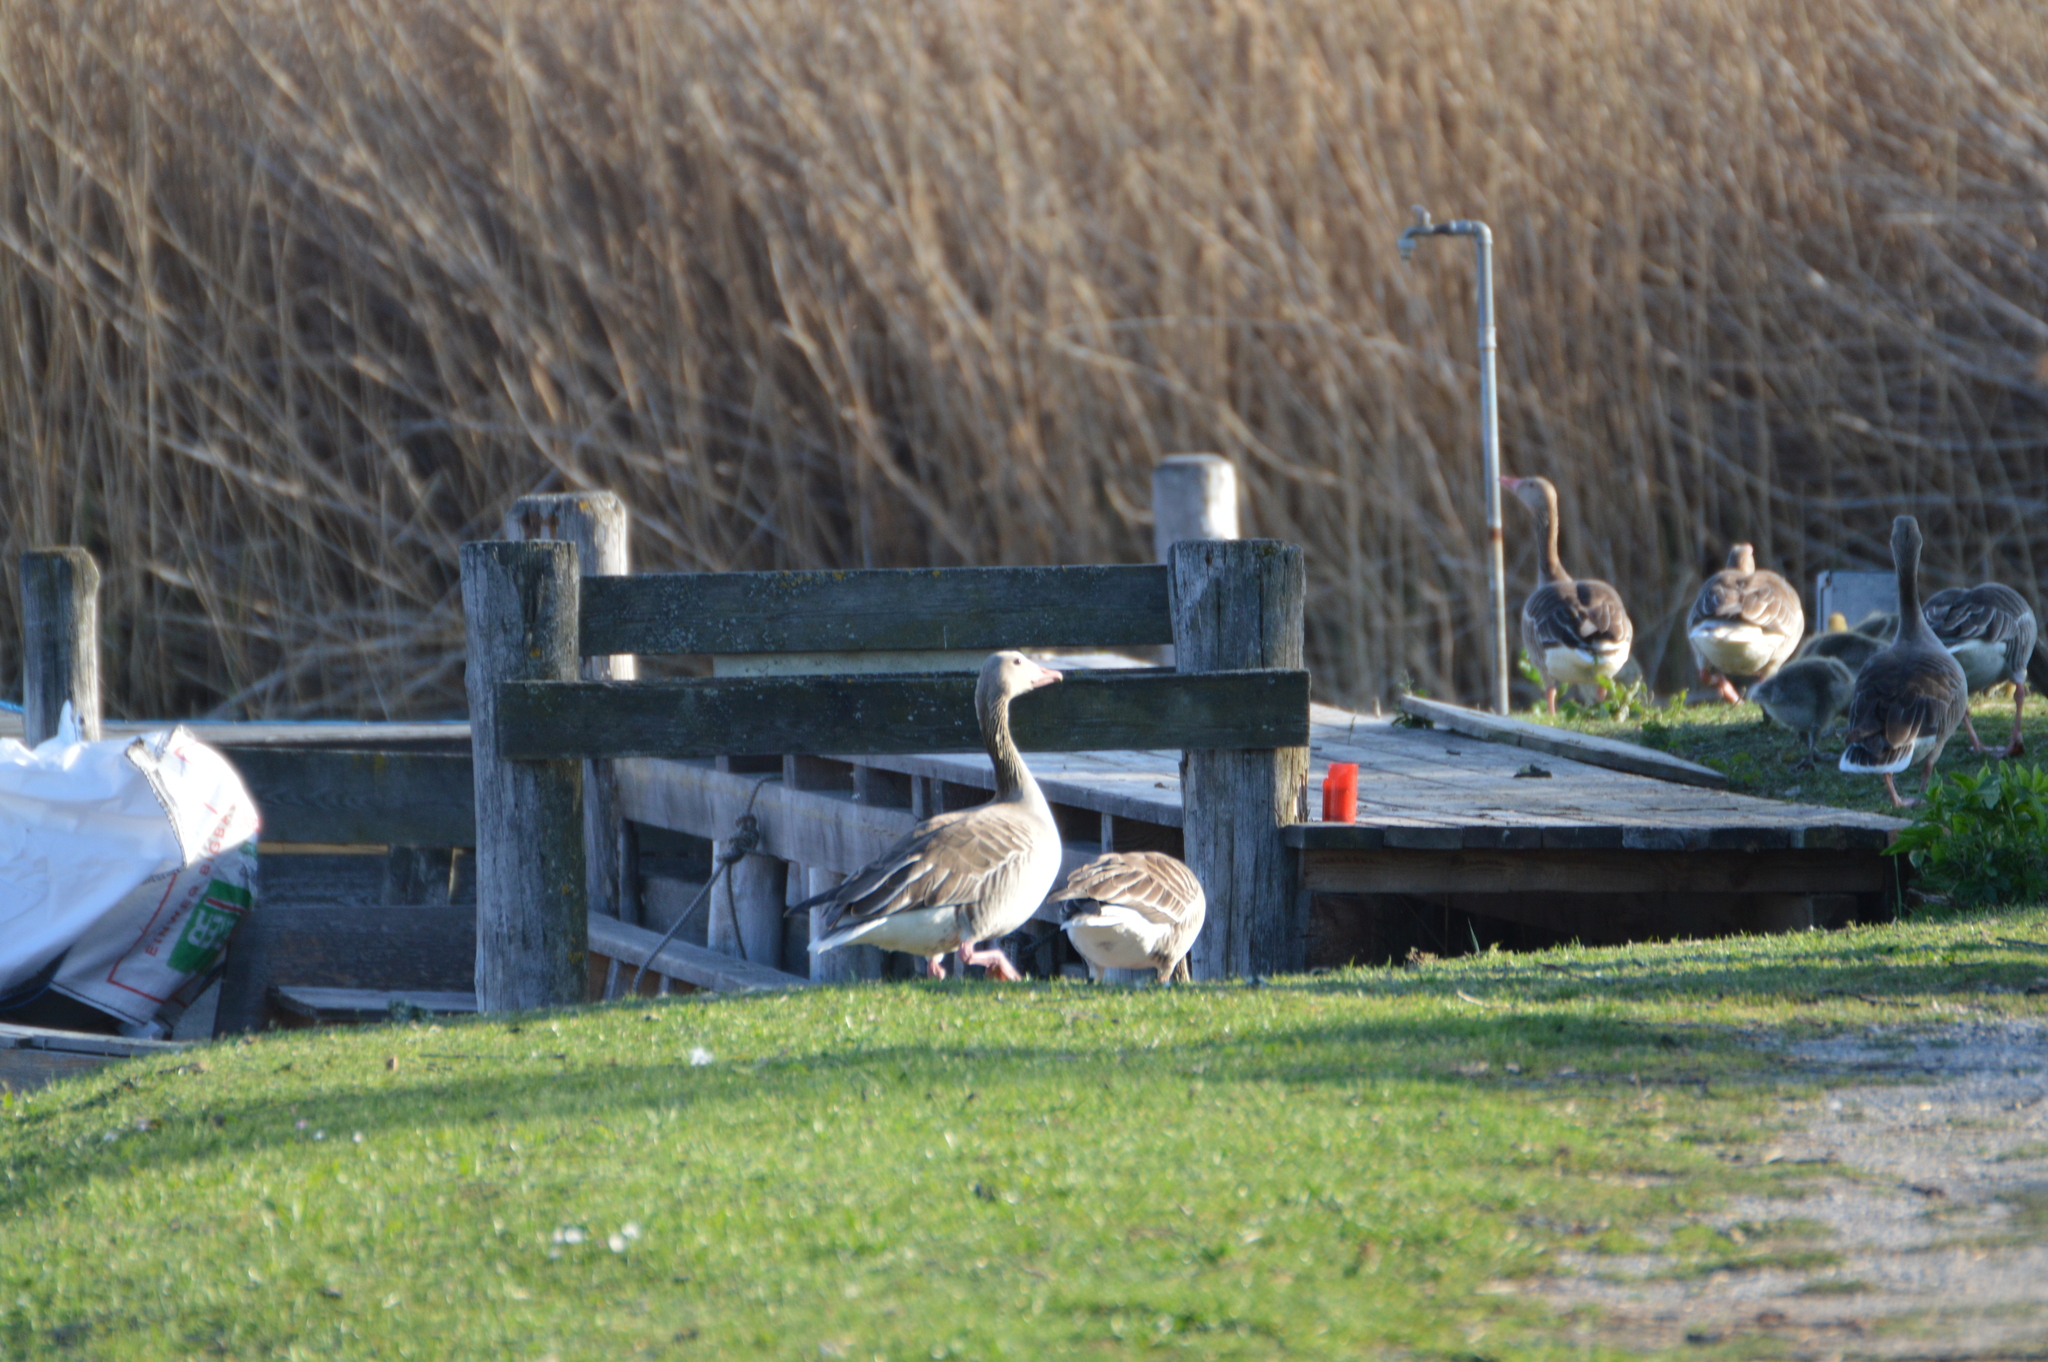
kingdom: Animalia
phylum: Chordata
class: Aves
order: Anseriformes
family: Anatidae
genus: Anser
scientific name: Anser anser
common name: Greylag goose
